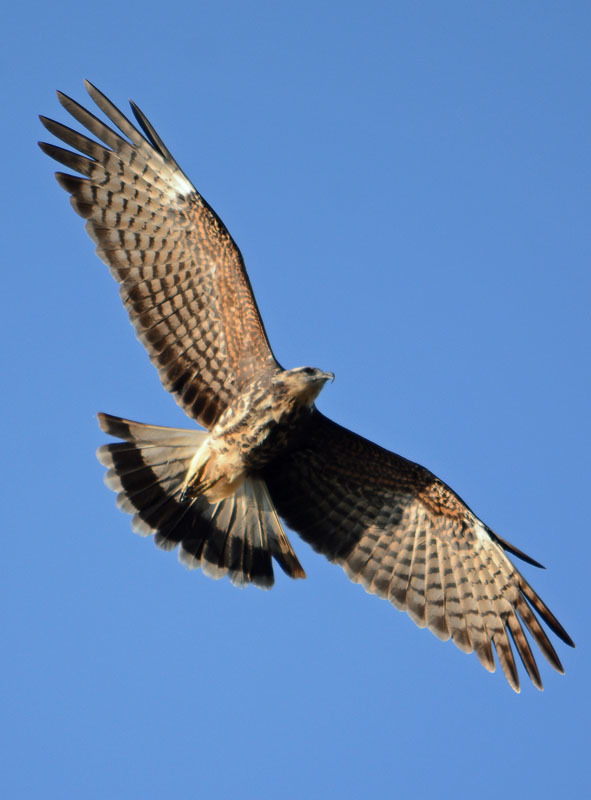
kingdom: Animalia
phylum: Chordata
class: Aves
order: Accipitriformes
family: Accipitridae
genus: Rostrhamus
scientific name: Rostrhamus sociabilis
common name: Snail kite
